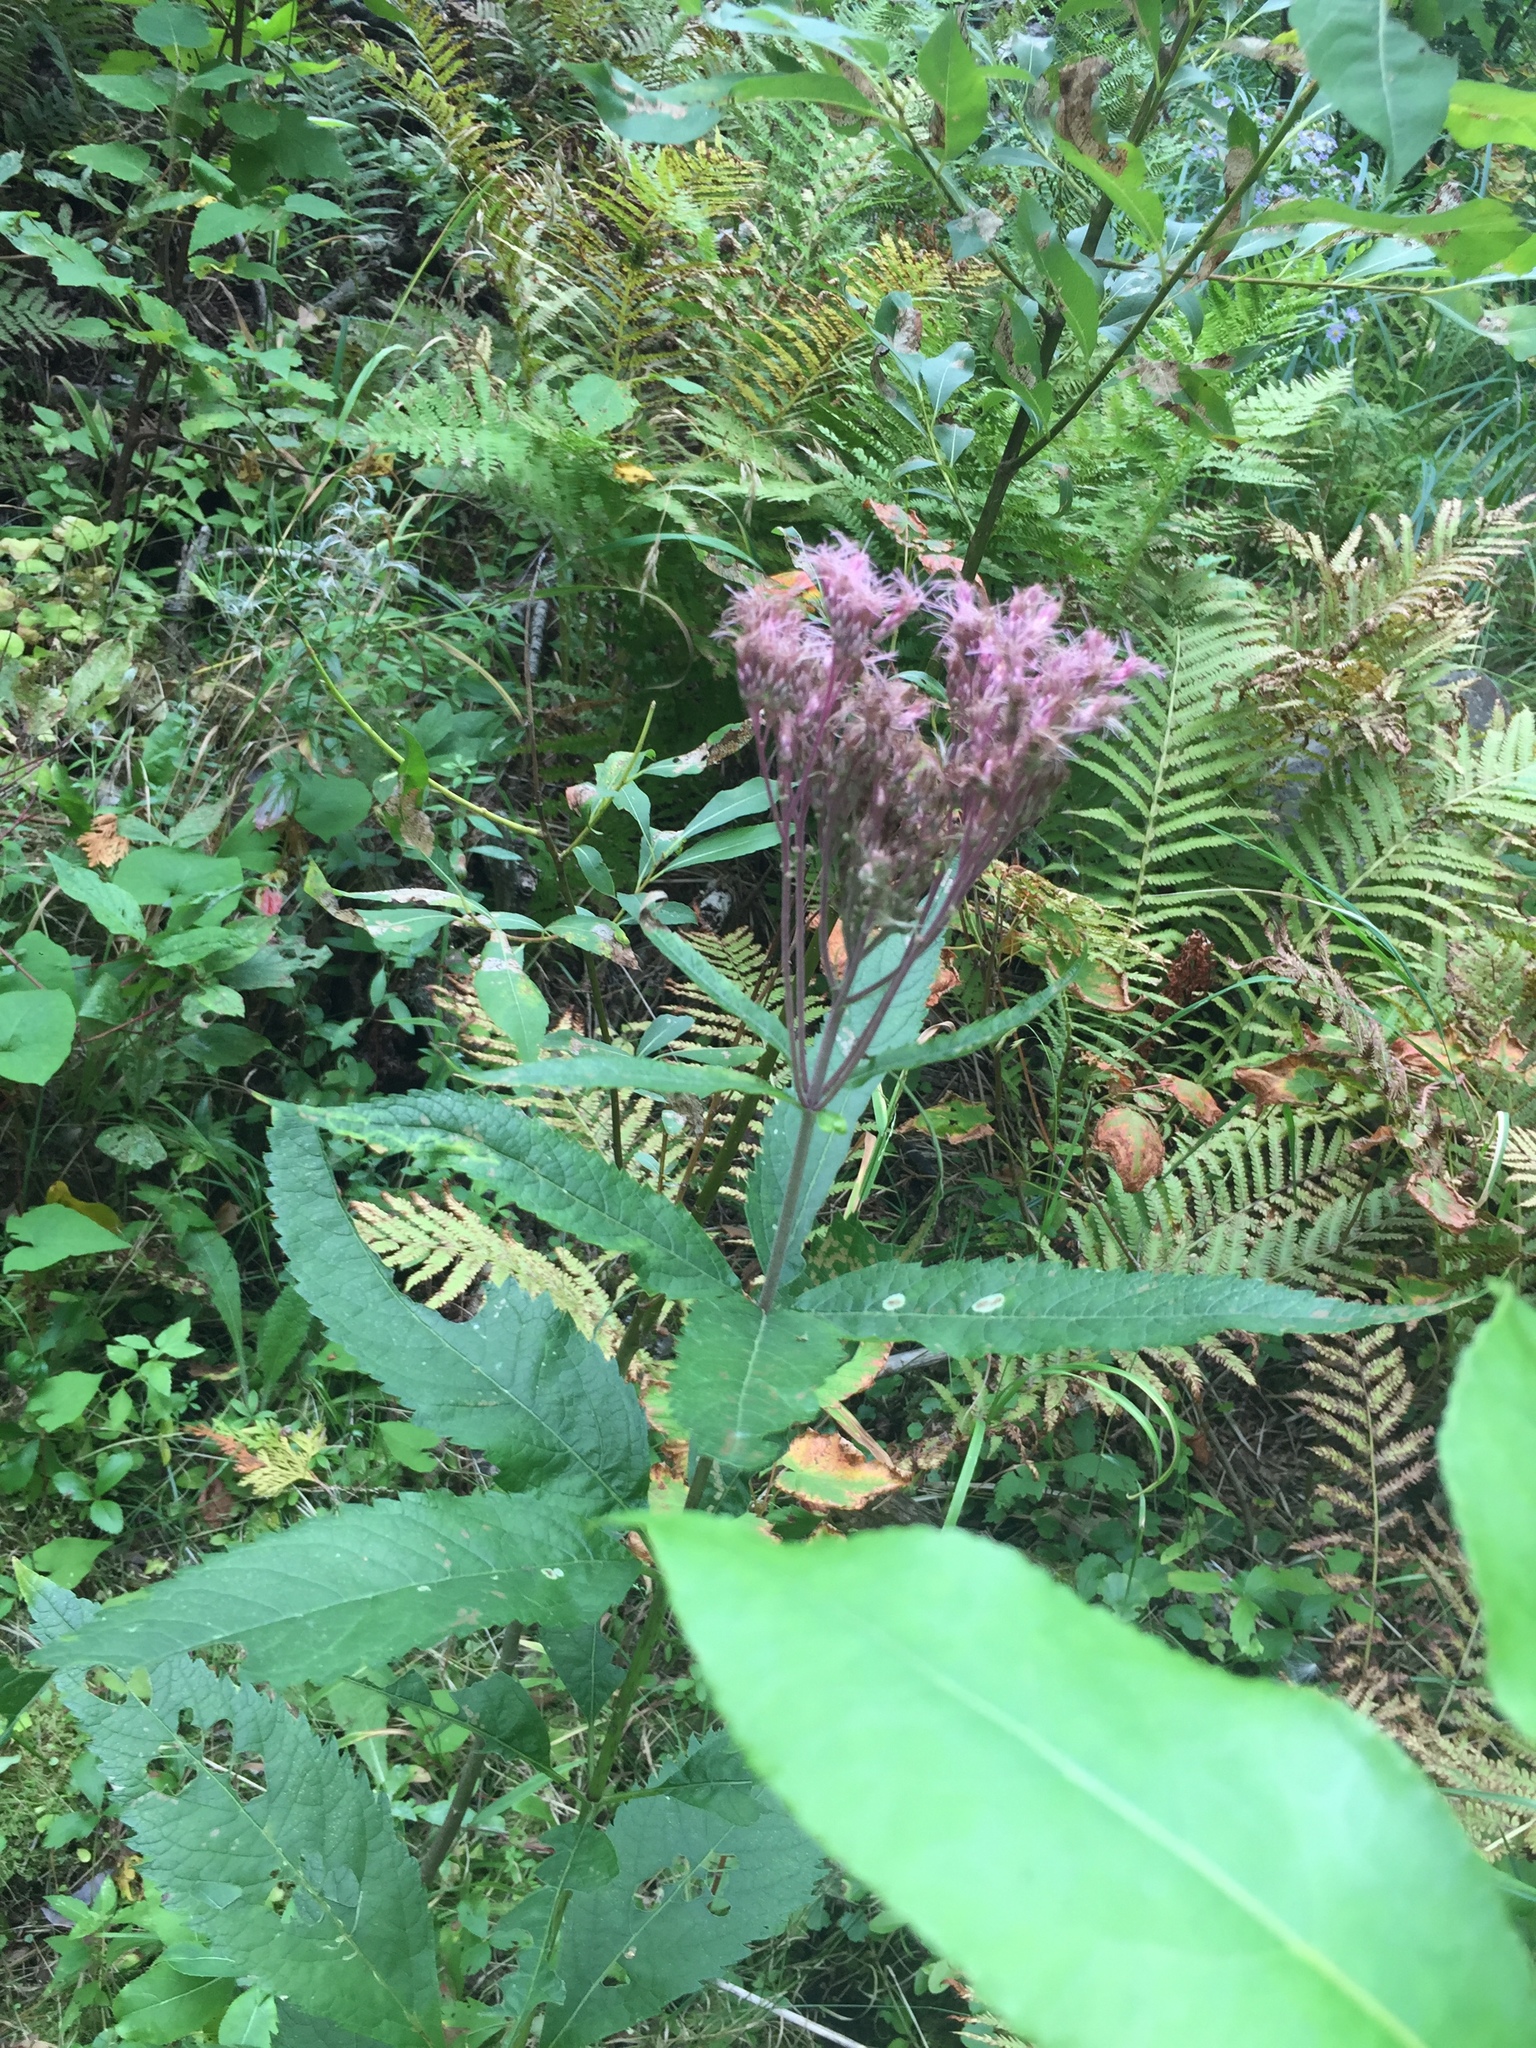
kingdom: Plantae
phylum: Tracheophyta
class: Magnoliopsida
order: Asterales
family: Asteraceae
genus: Eutrochium
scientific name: Eutrochium maculatum
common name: Spotted joe pye weed
